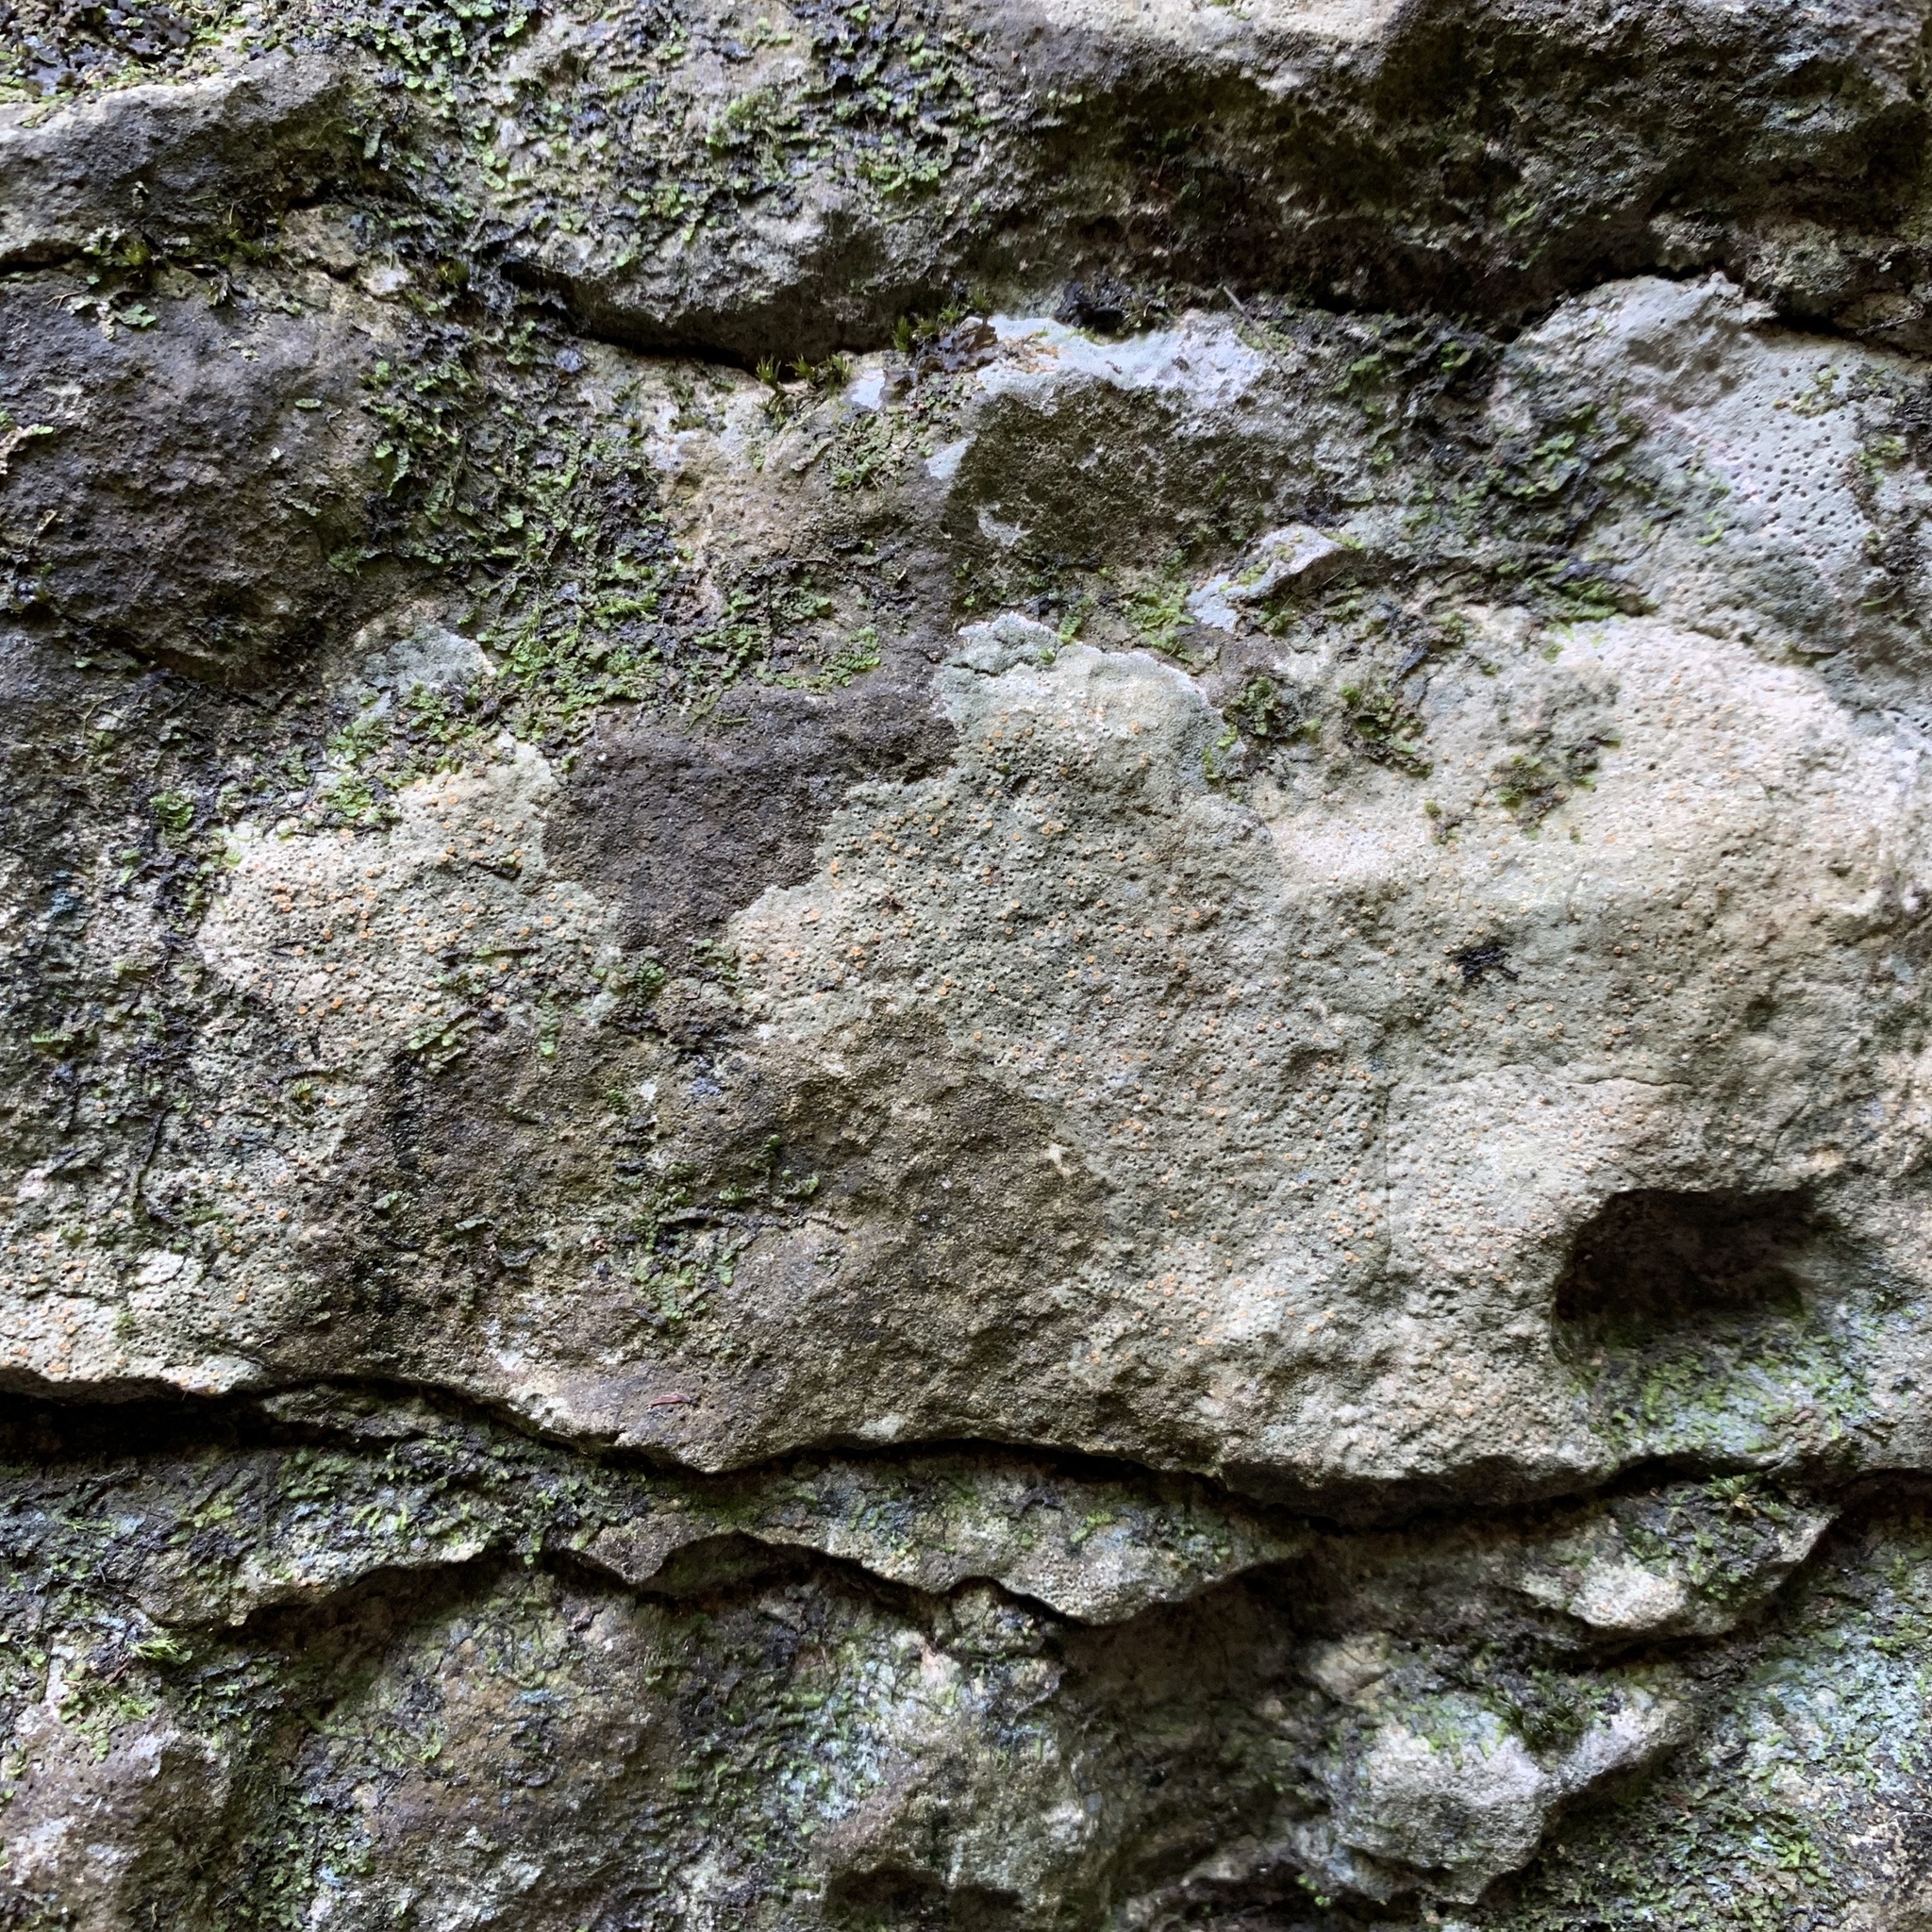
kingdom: Fungi
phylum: Ascomycota
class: Lecanoromycetes
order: Ostropales
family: Stictidaceae
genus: Petractis
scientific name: Petractis farlowii
